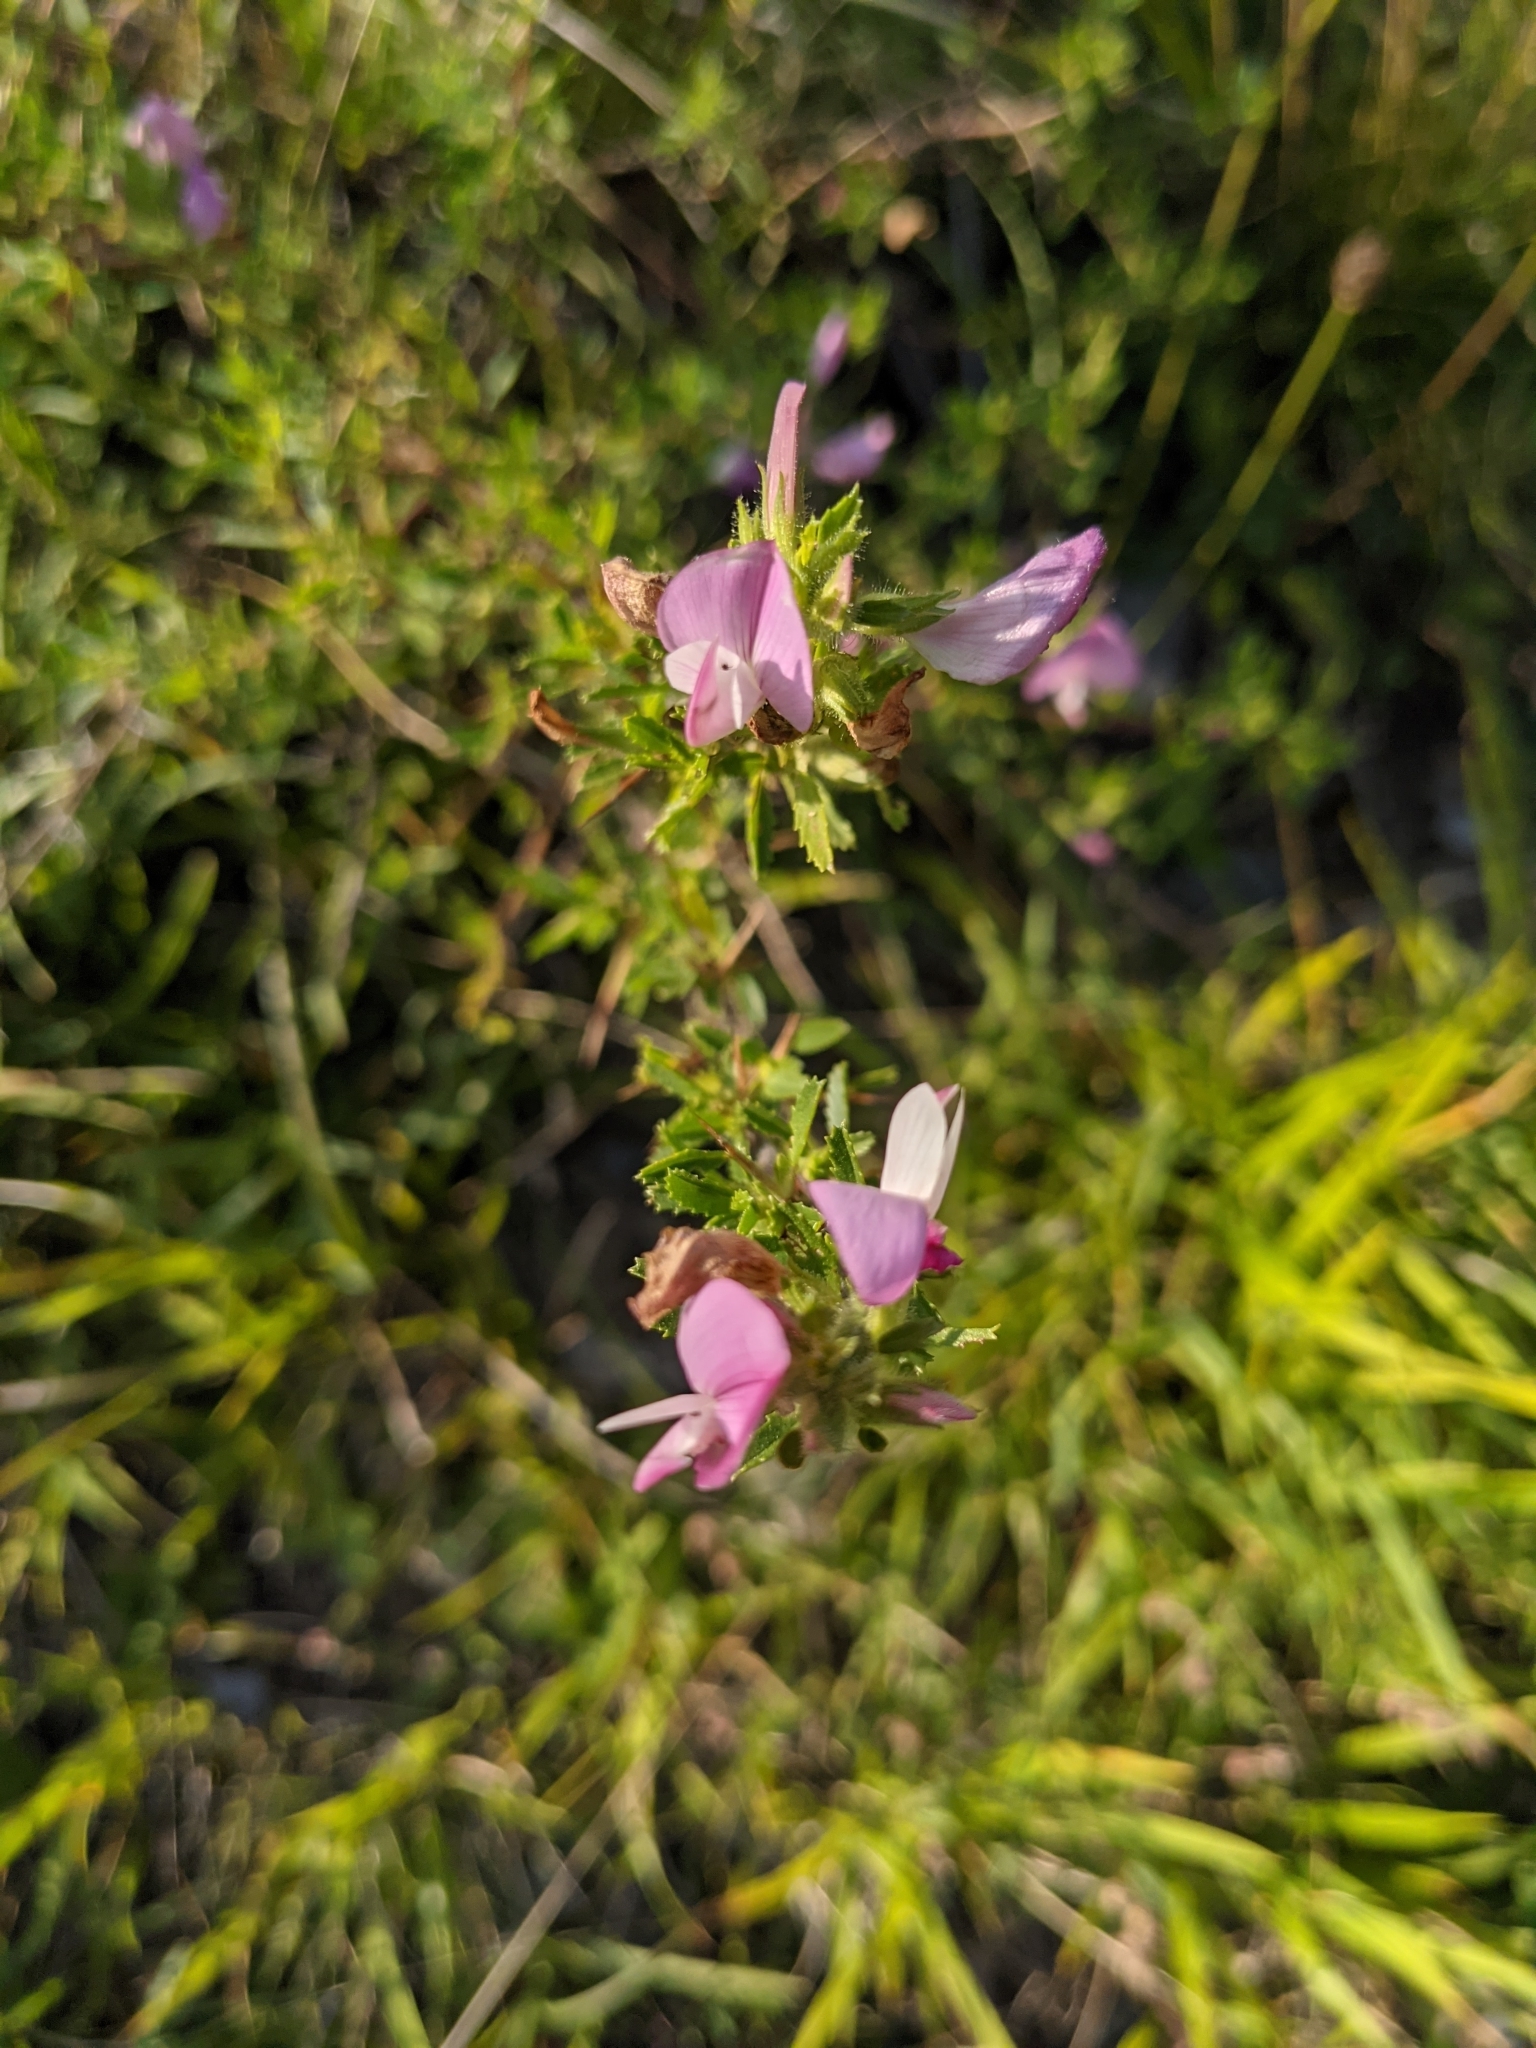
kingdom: Plantae
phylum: Tracheophyta
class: Magnoliopsida
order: Fabales
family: Fabaceae
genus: Ononis
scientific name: Ononis spinosa
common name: Spiny restharrow
